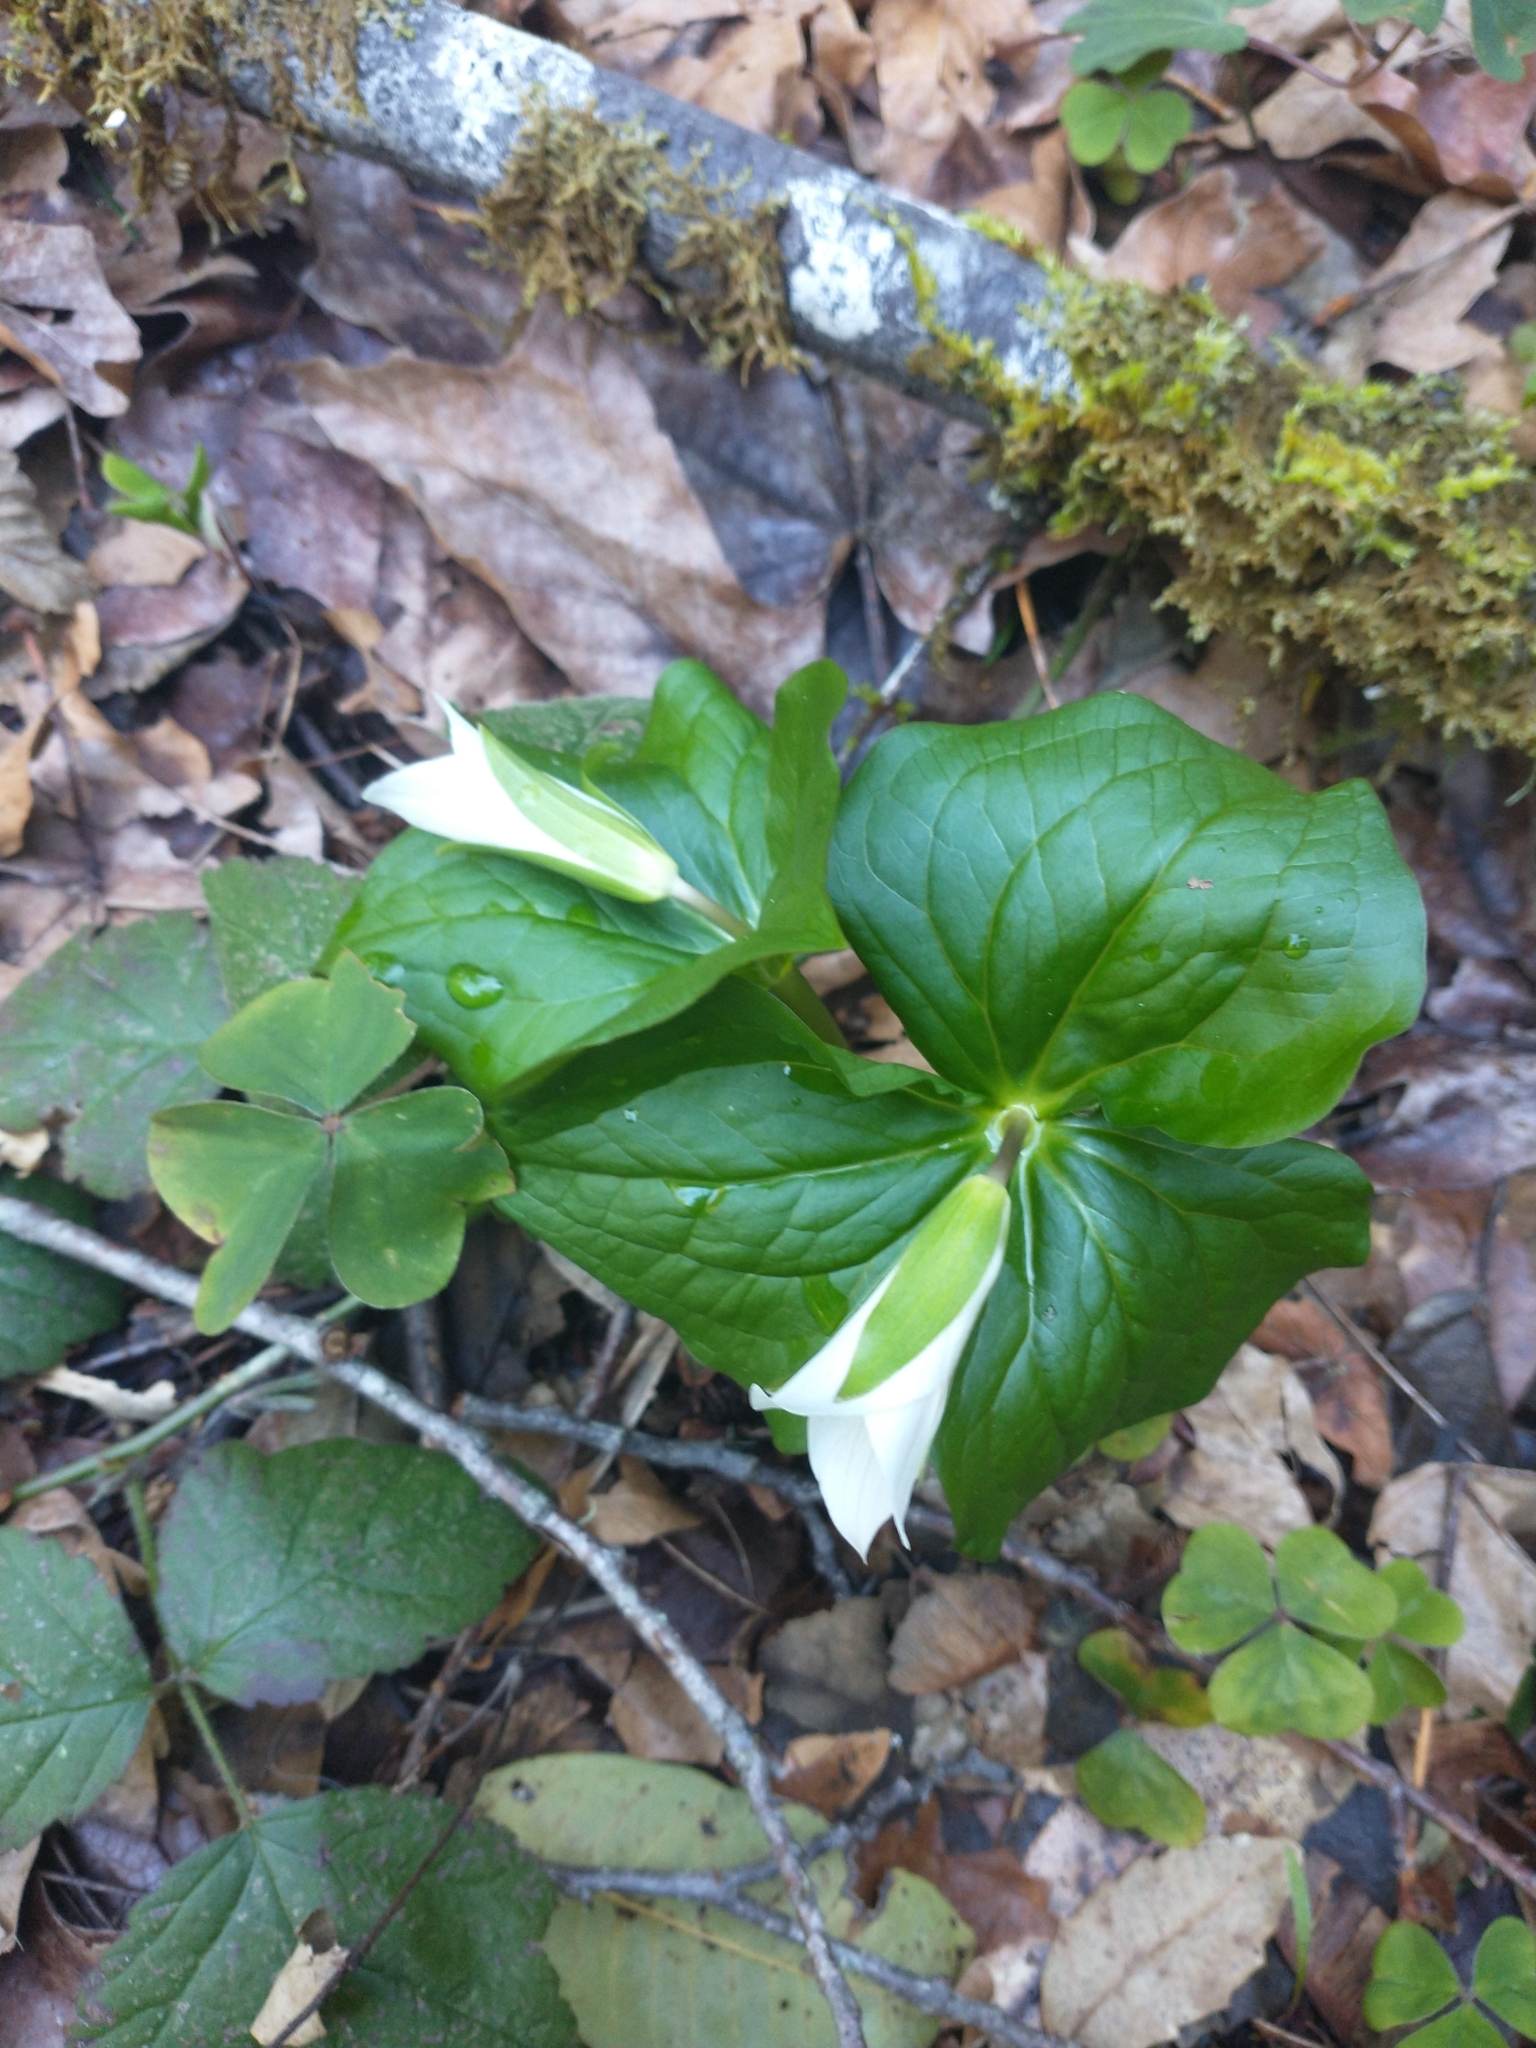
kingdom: Plantae
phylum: Tracheophyta
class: Liliopsida
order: Liliales
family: Melanthiaceae
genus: Trillium
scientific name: Trillium ovatum
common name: Pacific trillium
